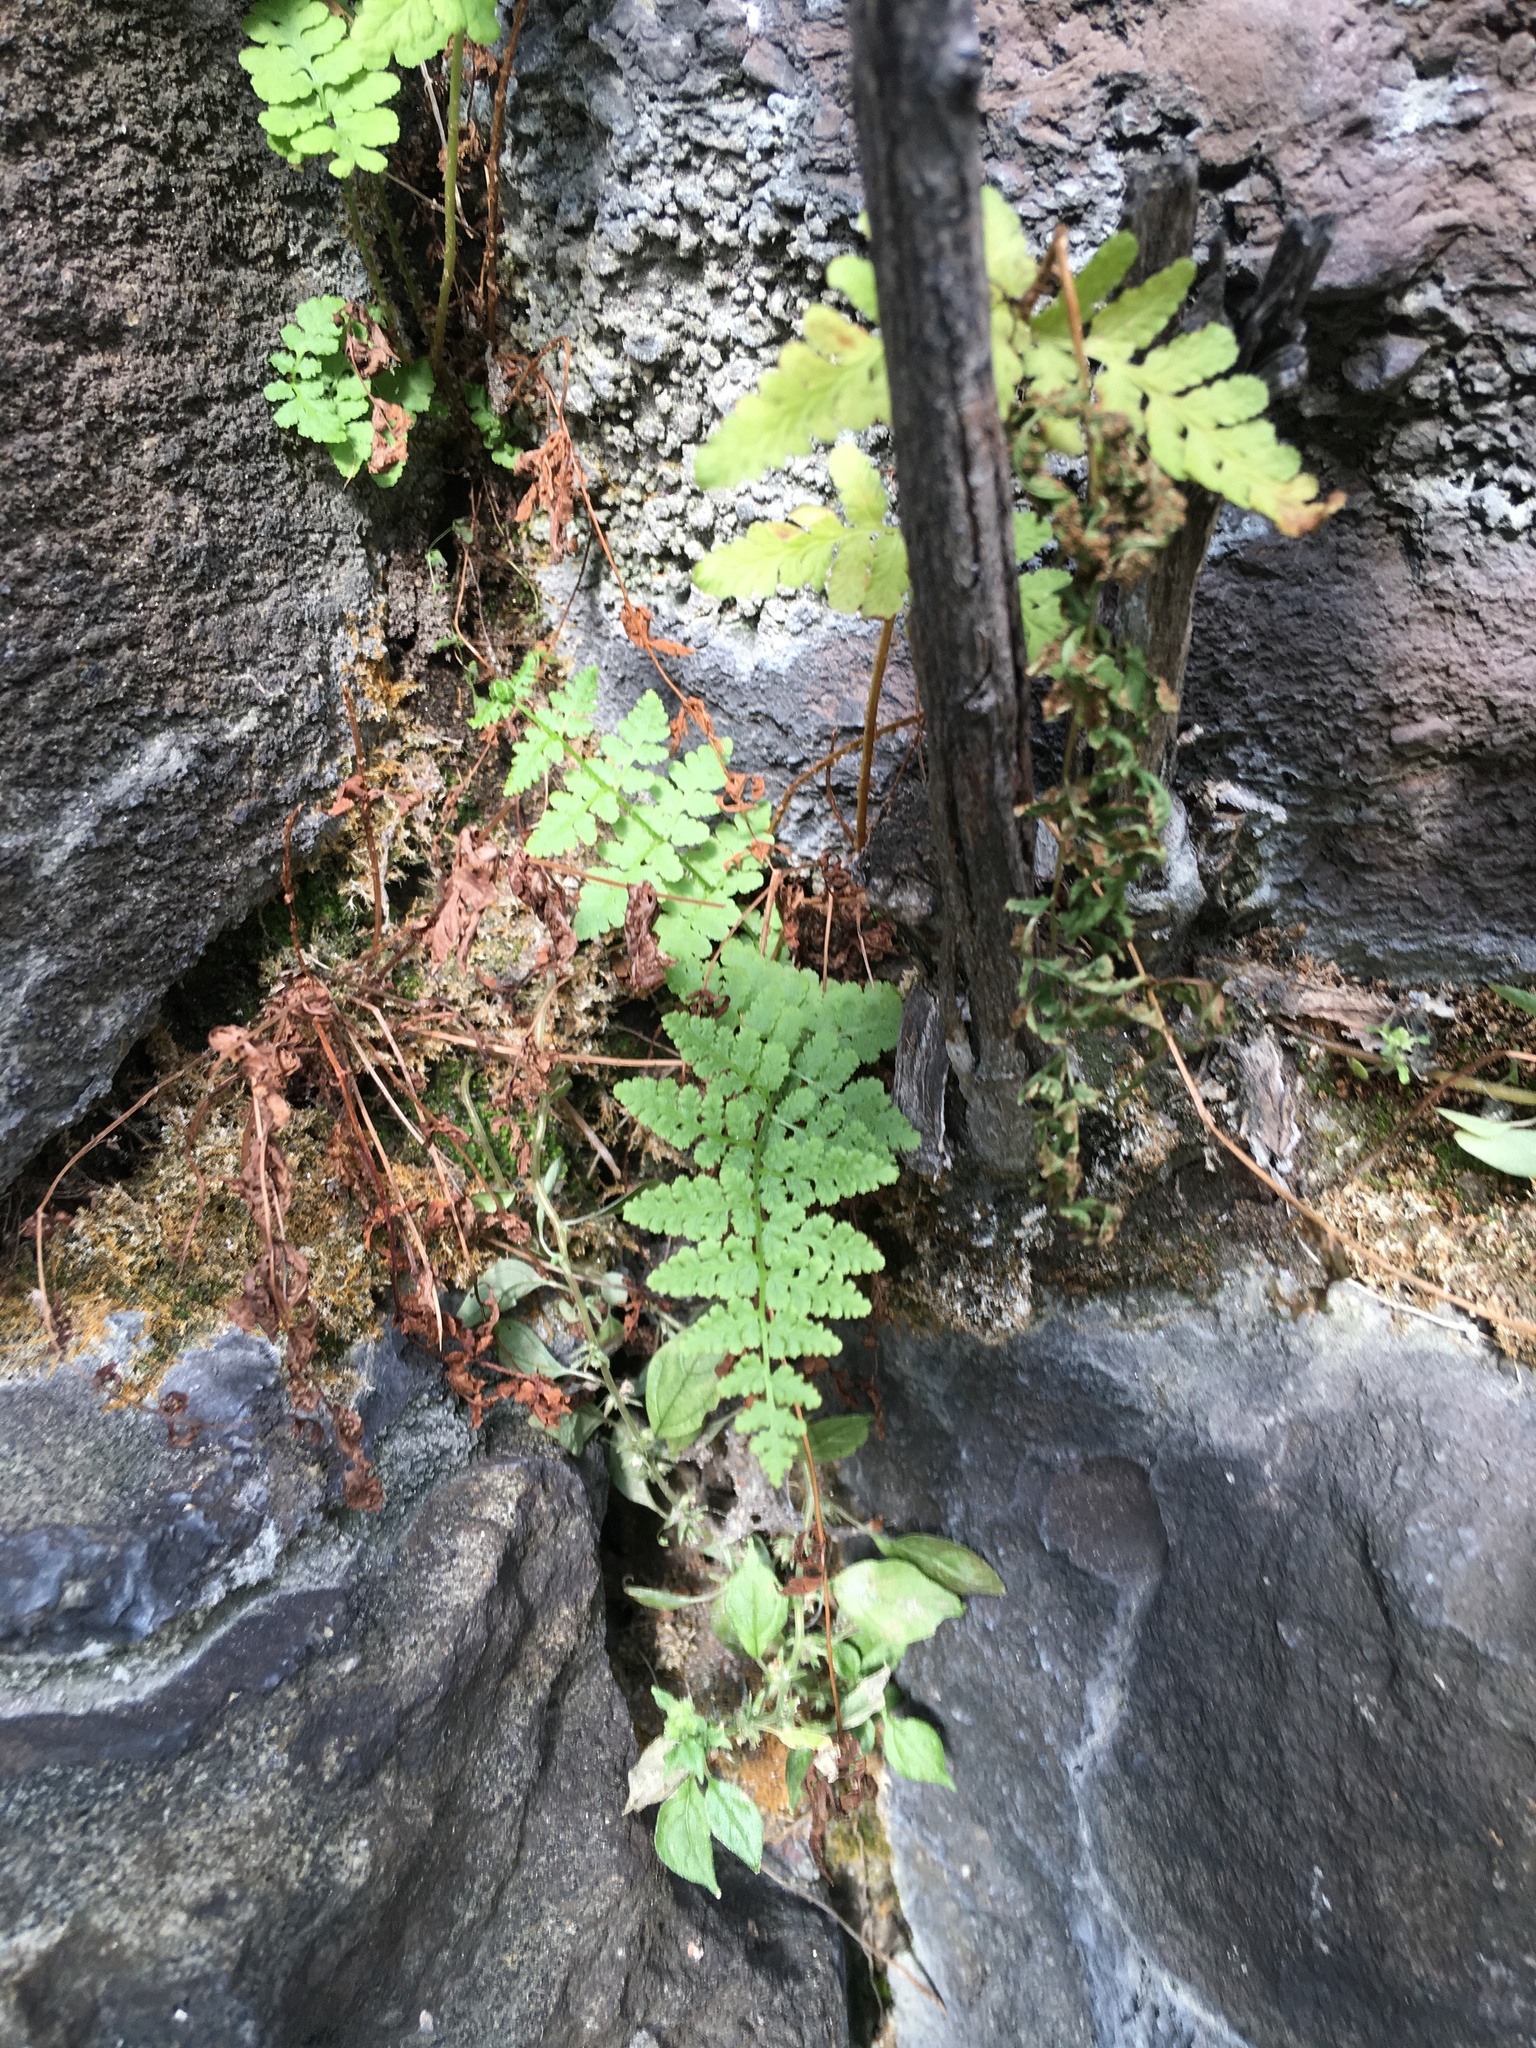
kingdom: Plantae
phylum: Tracheophyta
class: Polypodiopsida
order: Polypodiales
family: Woodsiaceae
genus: Physematium
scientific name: Physematium obtusum
